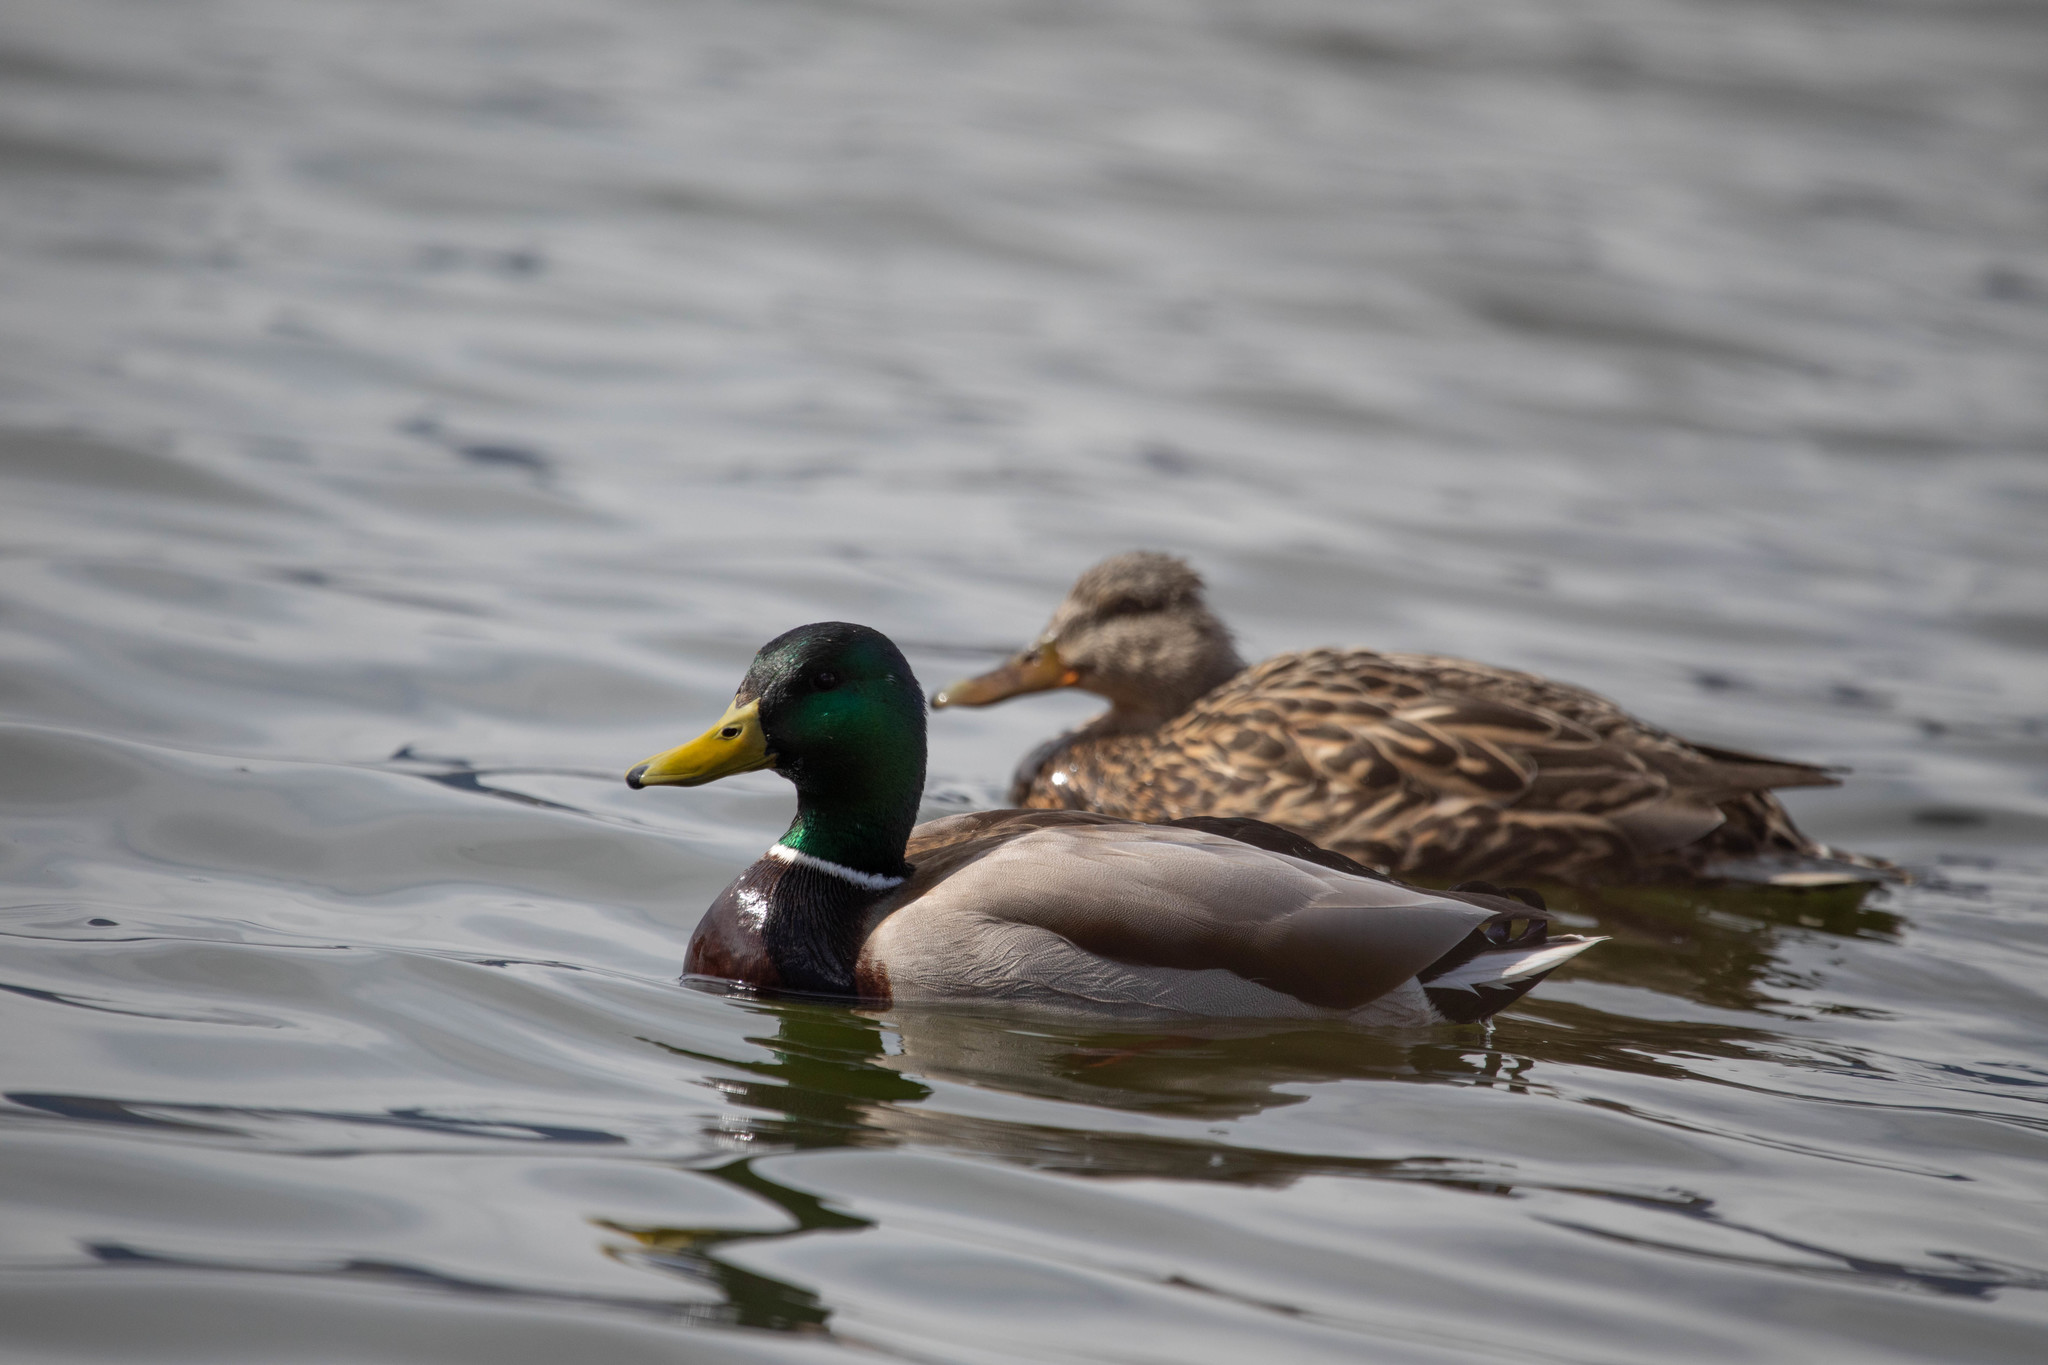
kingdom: Animalia
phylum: Chordata
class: Aves
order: Anseriformes
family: Anatidae
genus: Anas
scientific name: Anas platyrhynchos
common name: Mallard
